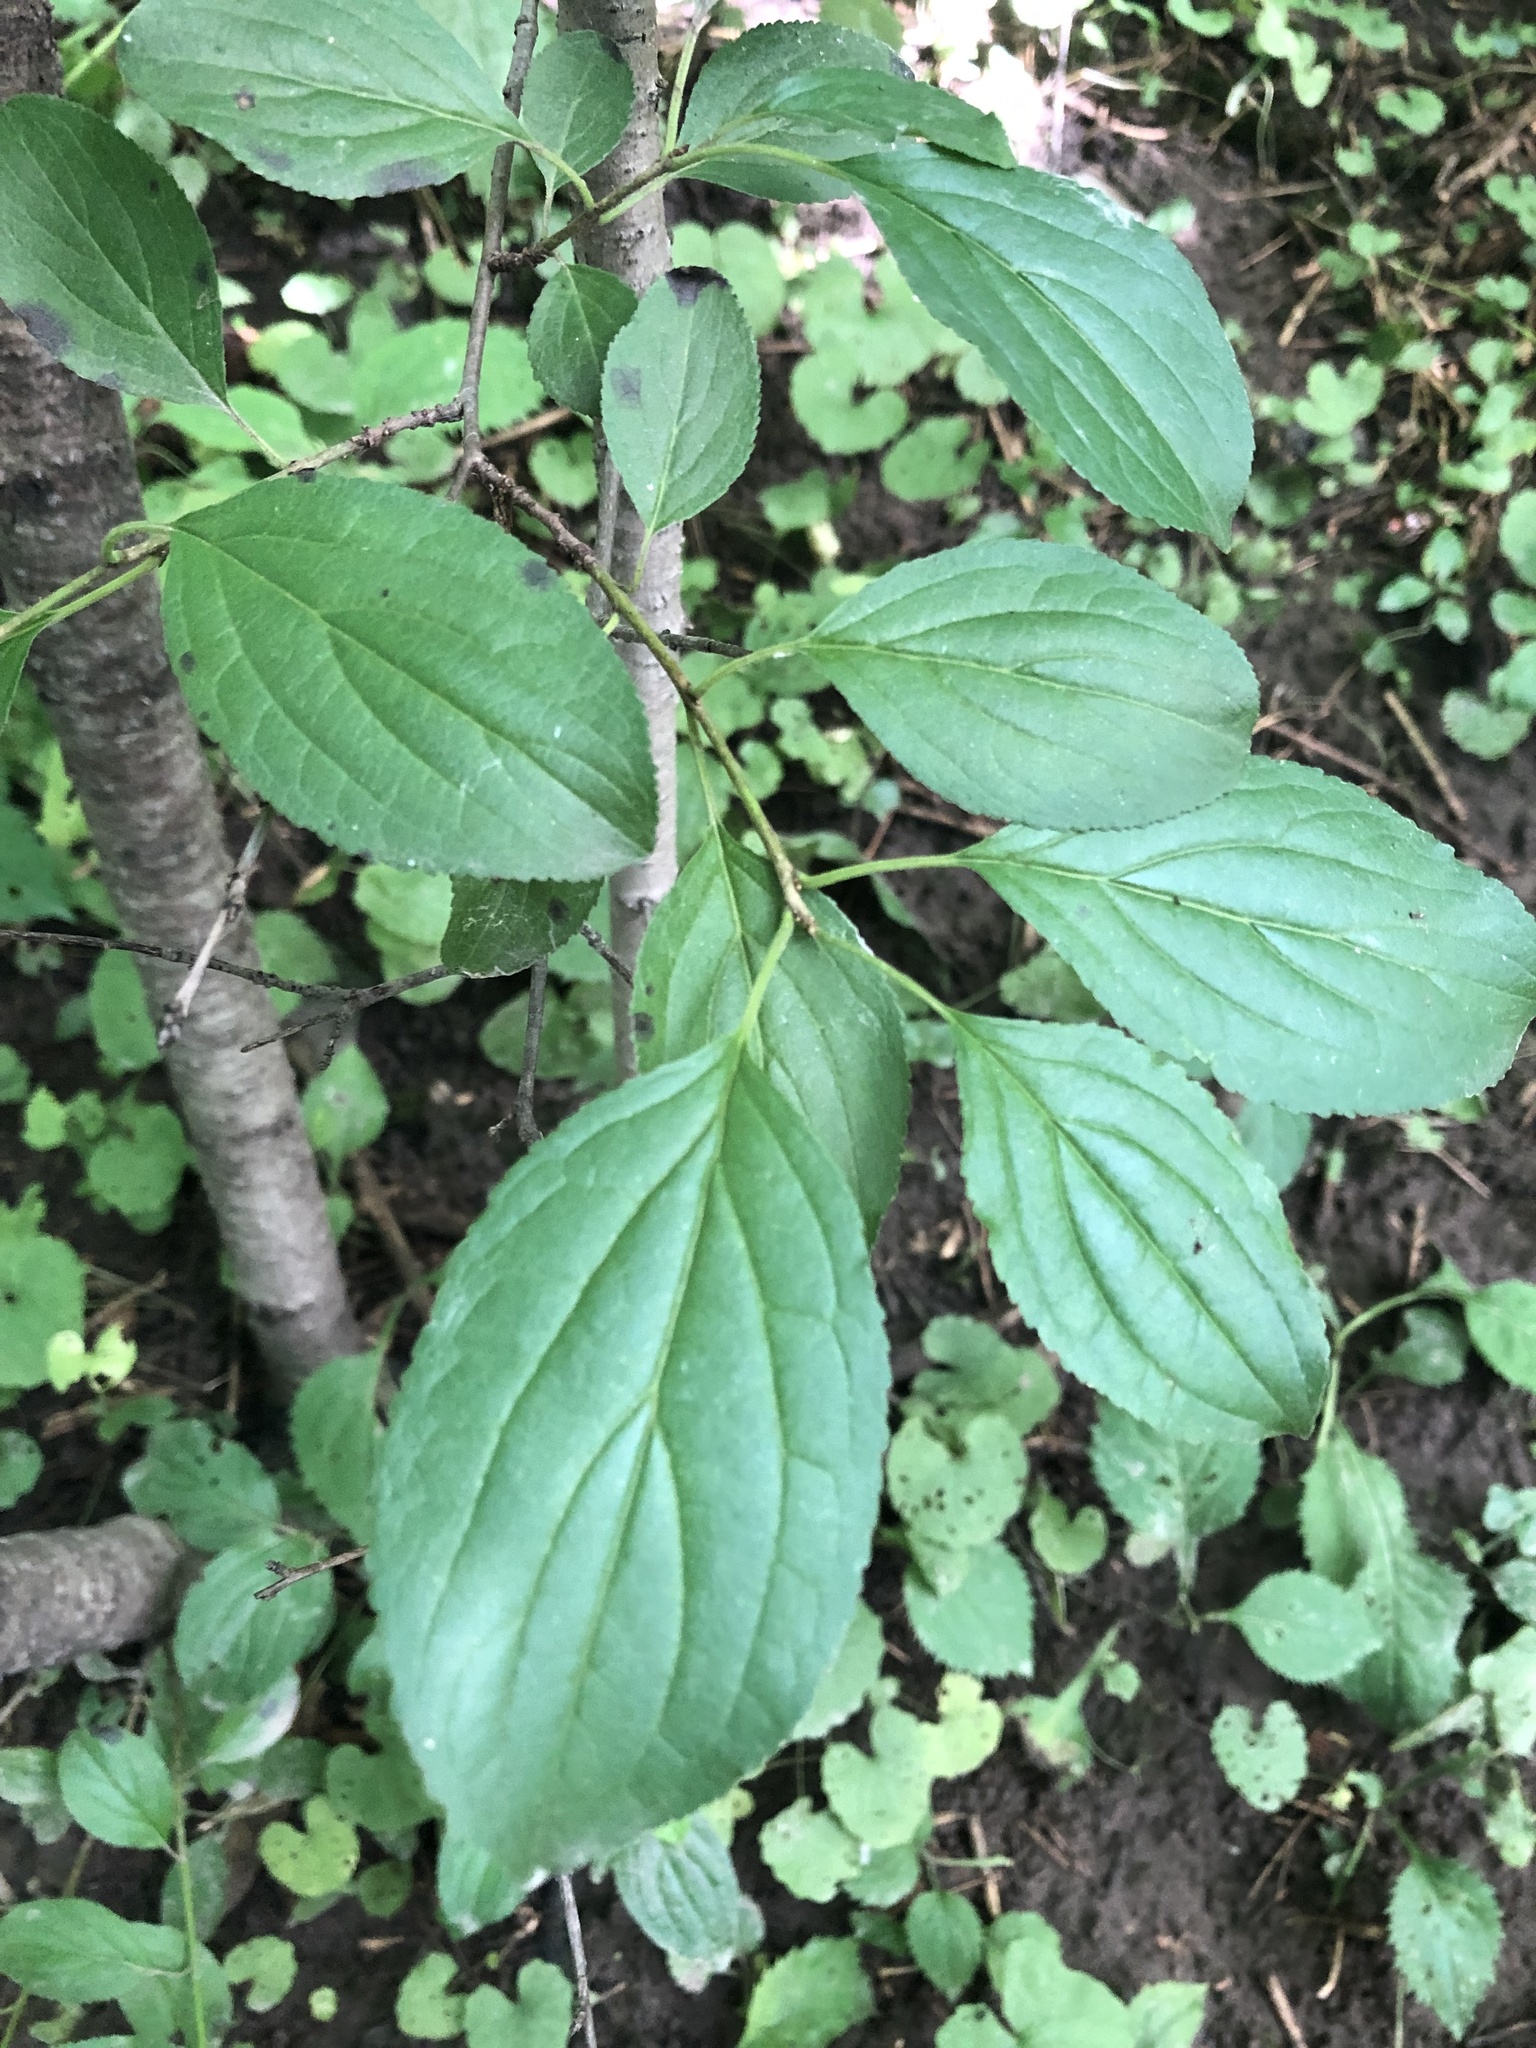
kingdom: Plantae
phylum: Tracheophyta
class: Magnoliopsida
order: Rosales
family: Rhamnaceae
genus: Rhamnus
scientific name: Rhamnus cathartica
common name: Common buckthorn
